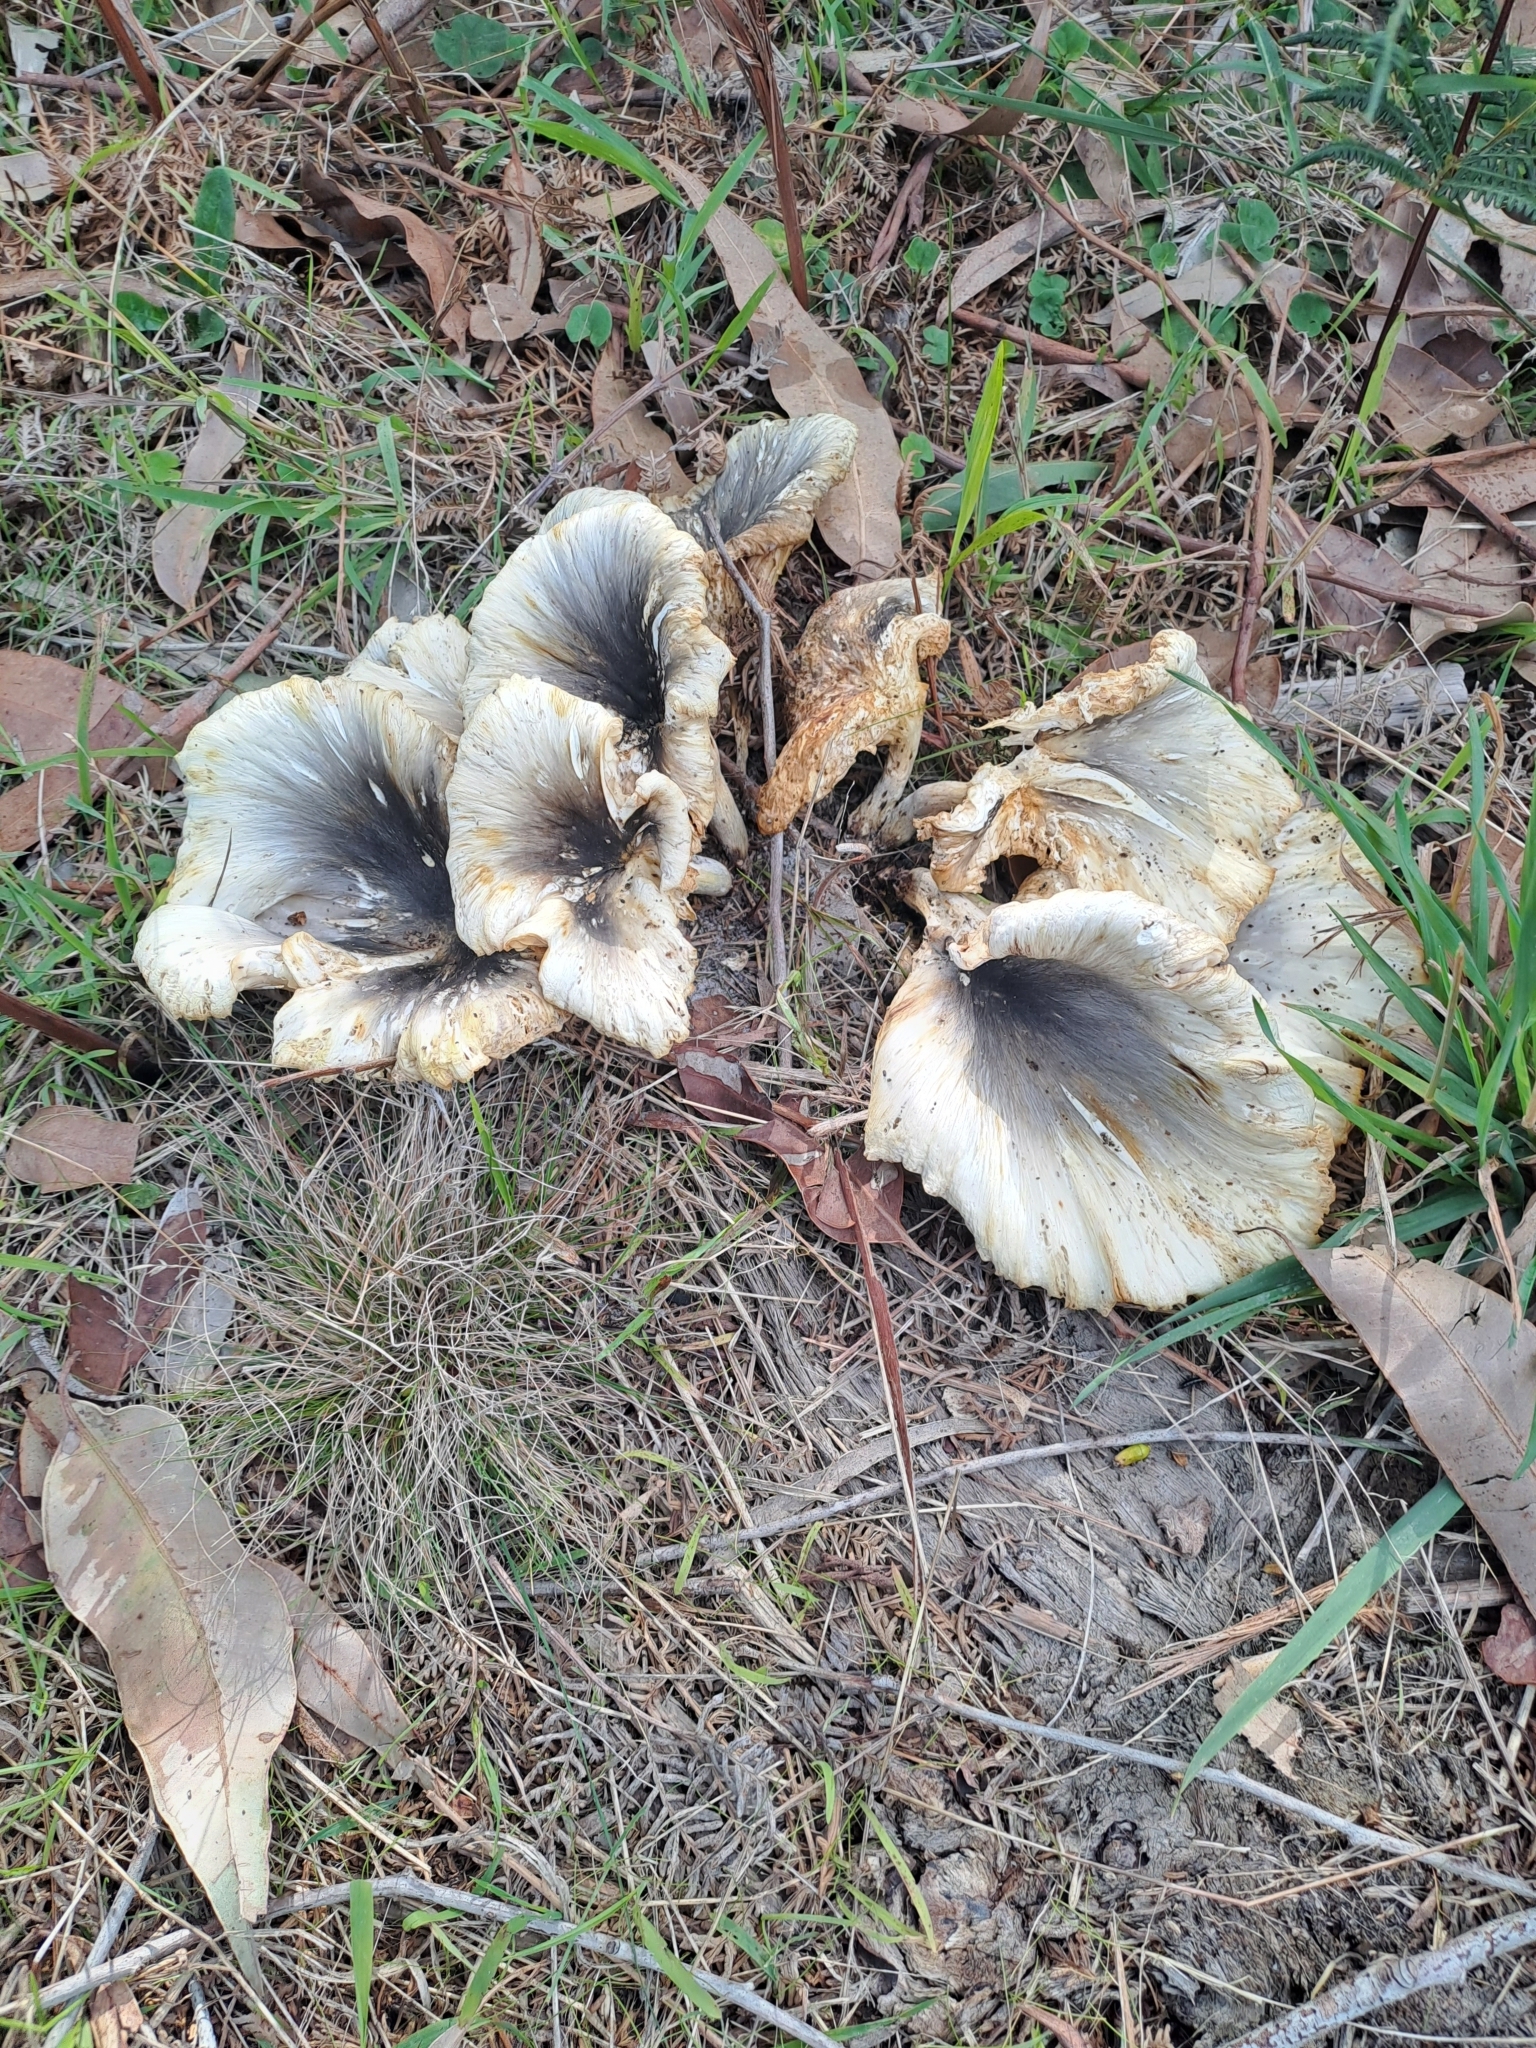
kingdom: Fungi
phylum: Basidiomycota
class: Agaricomycetes
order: Agaricales
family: Omphalotaceae
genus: Omphalotus
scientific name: Omphalotus nidiformis
